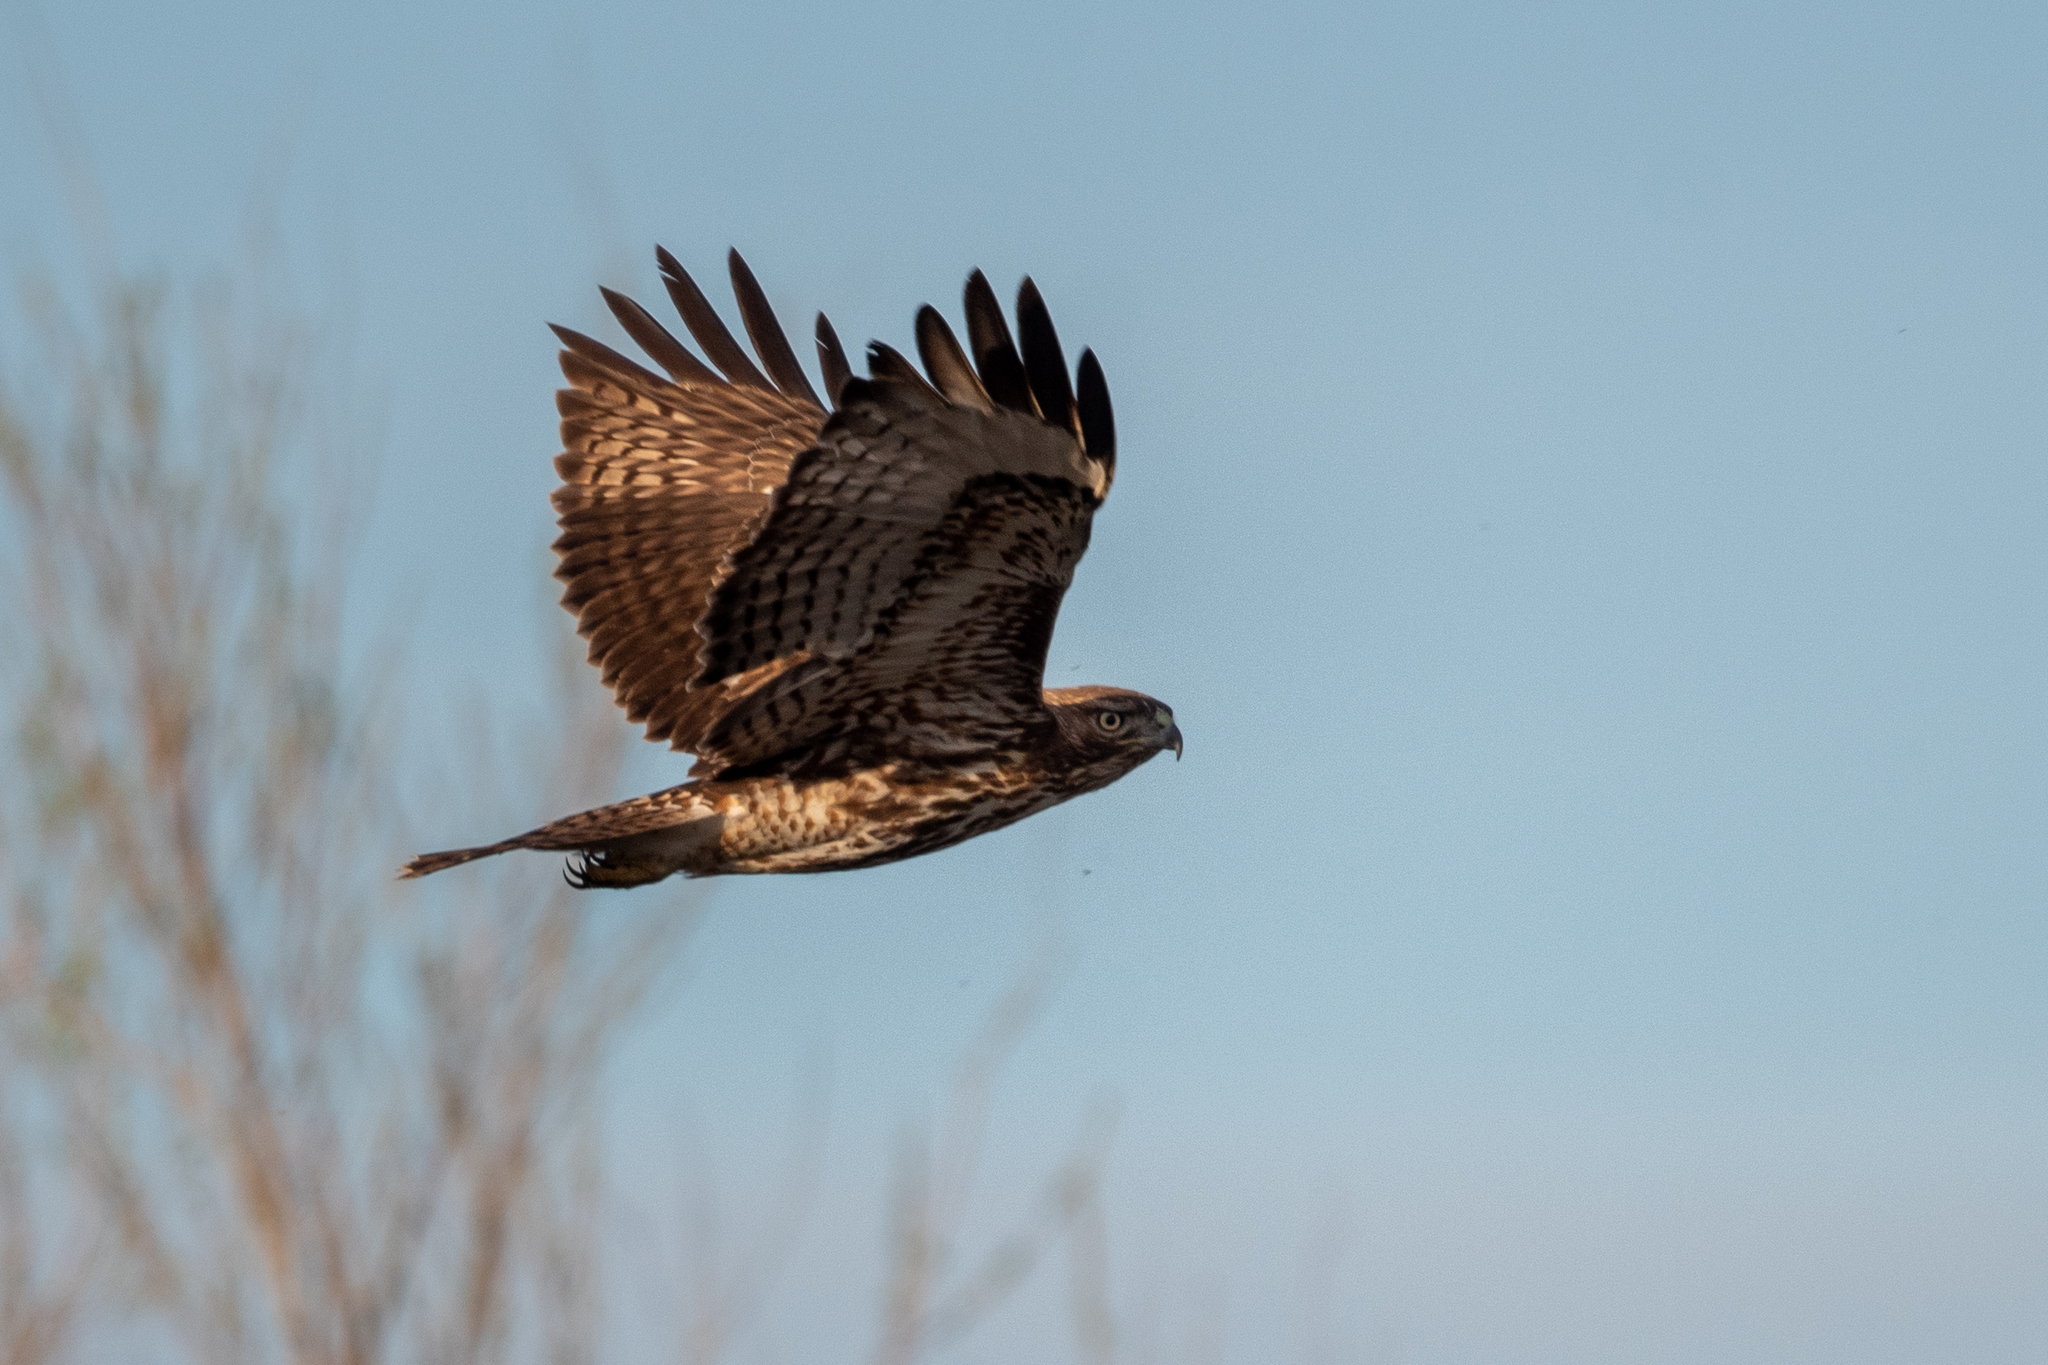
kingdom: Animalia
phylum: Chordata
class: Aves
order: Accipitriformes
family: Accipitridae
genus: Buteo
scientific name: Buteo jamaicensis
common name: Red-tailed hawk
